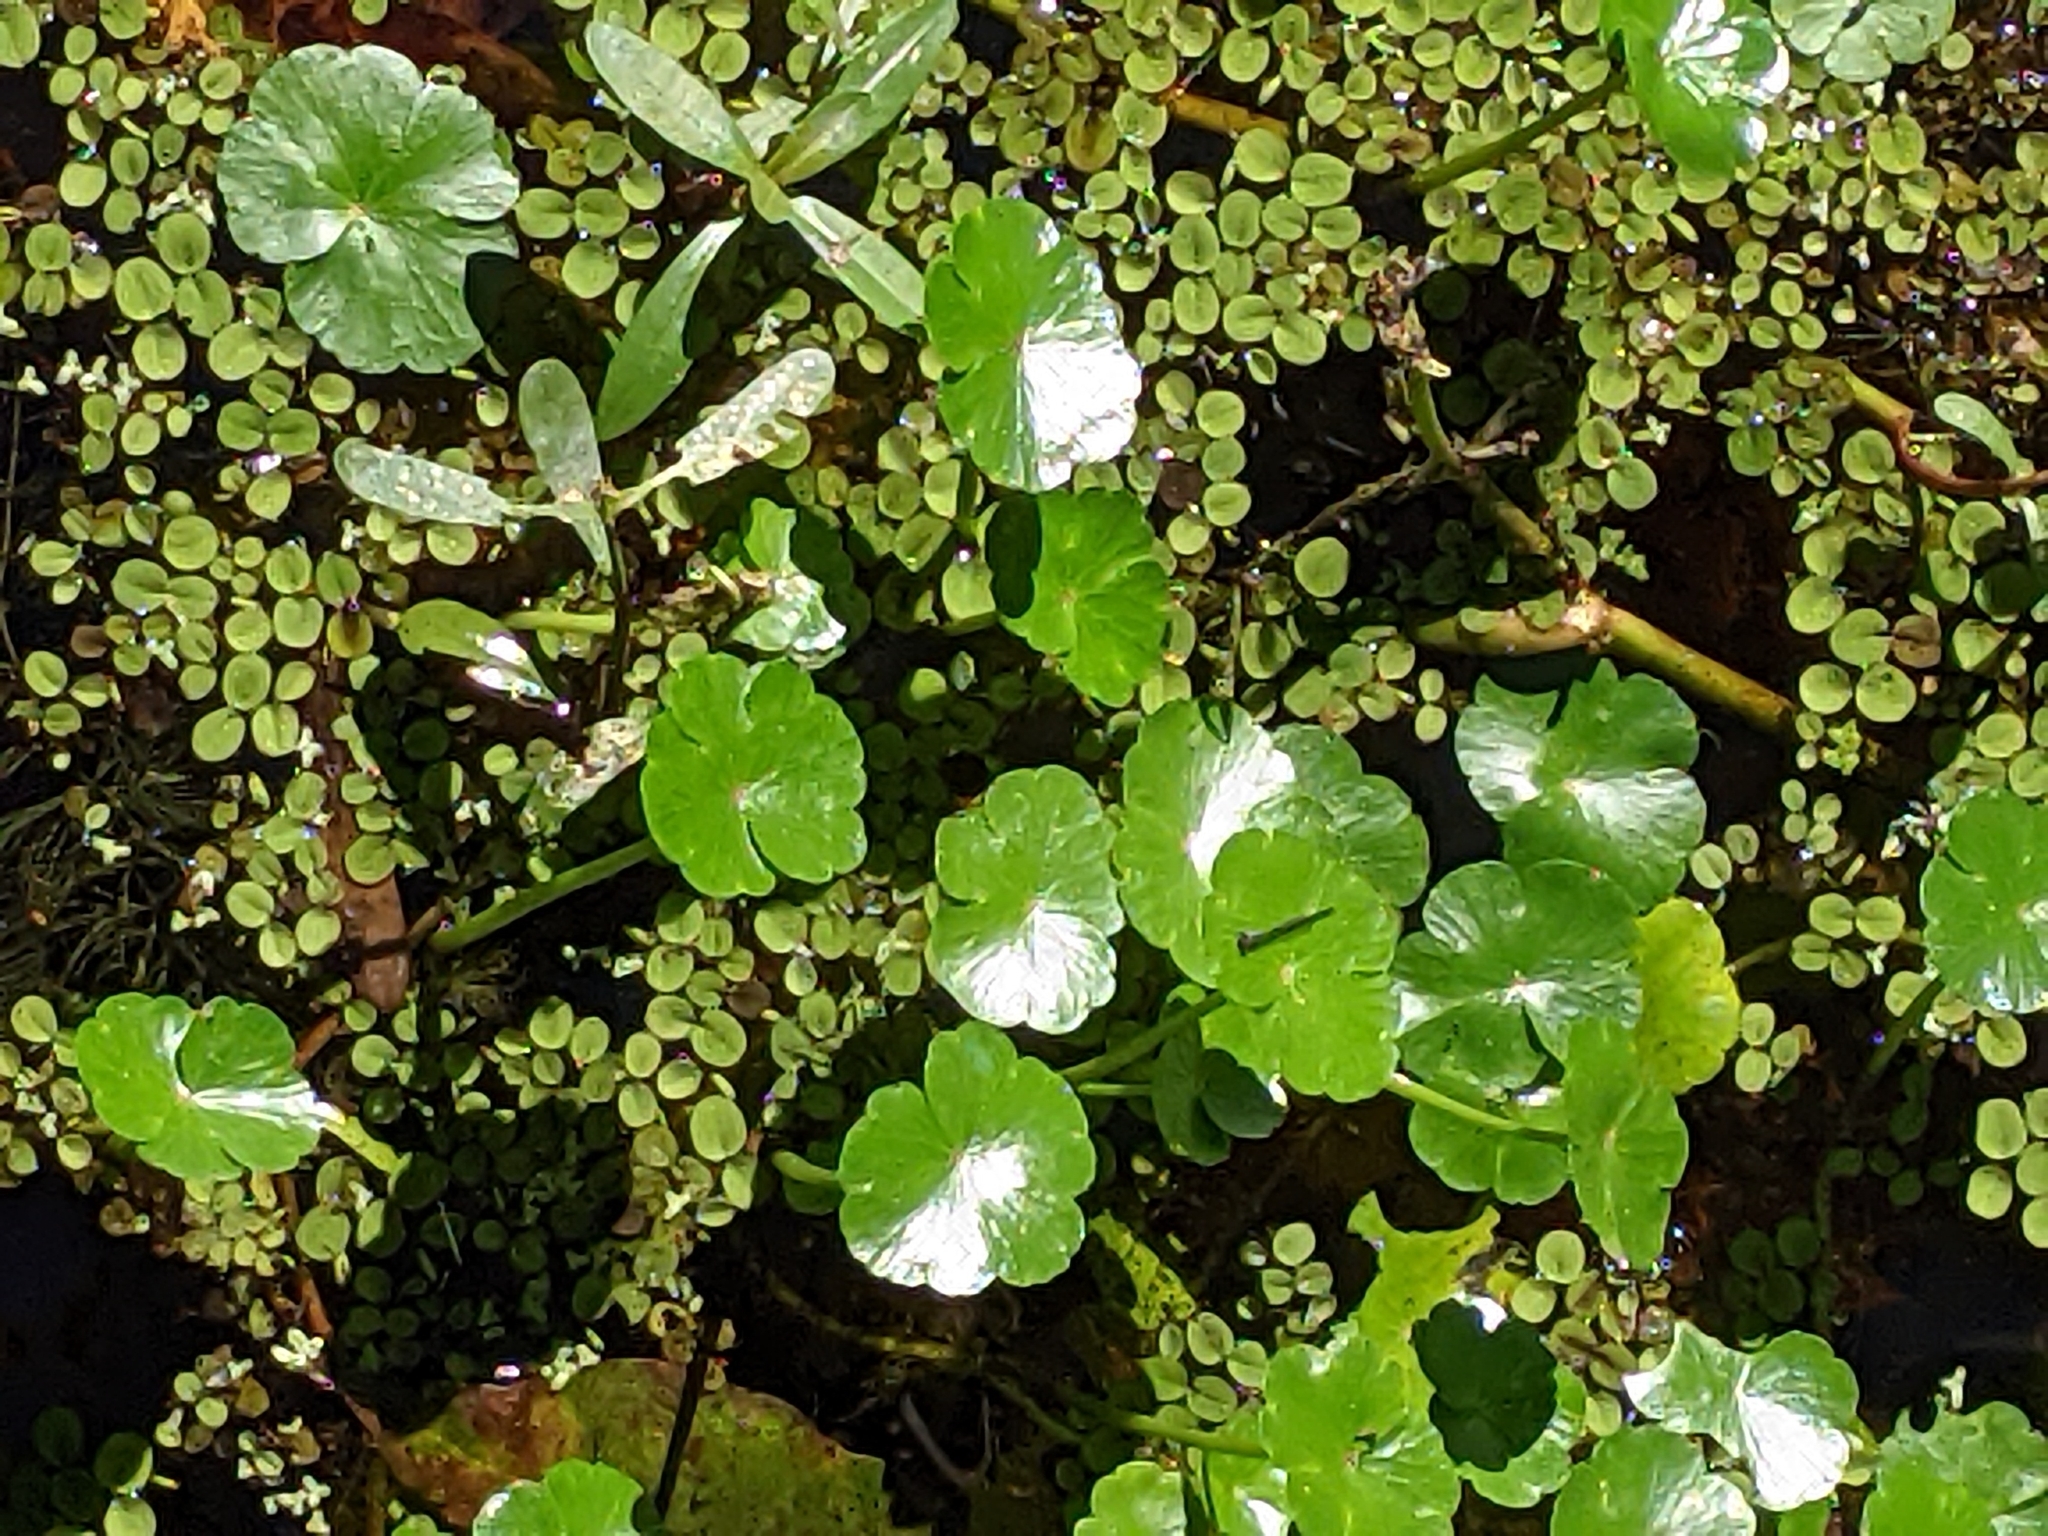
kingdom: Plantae
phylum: Tracheophyta
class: Magnoliopsida
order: Apiales
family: Araliaceae
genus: Hydrocotyle
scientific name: Hydrocotyle ranunculoides
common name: Floating pennywort
